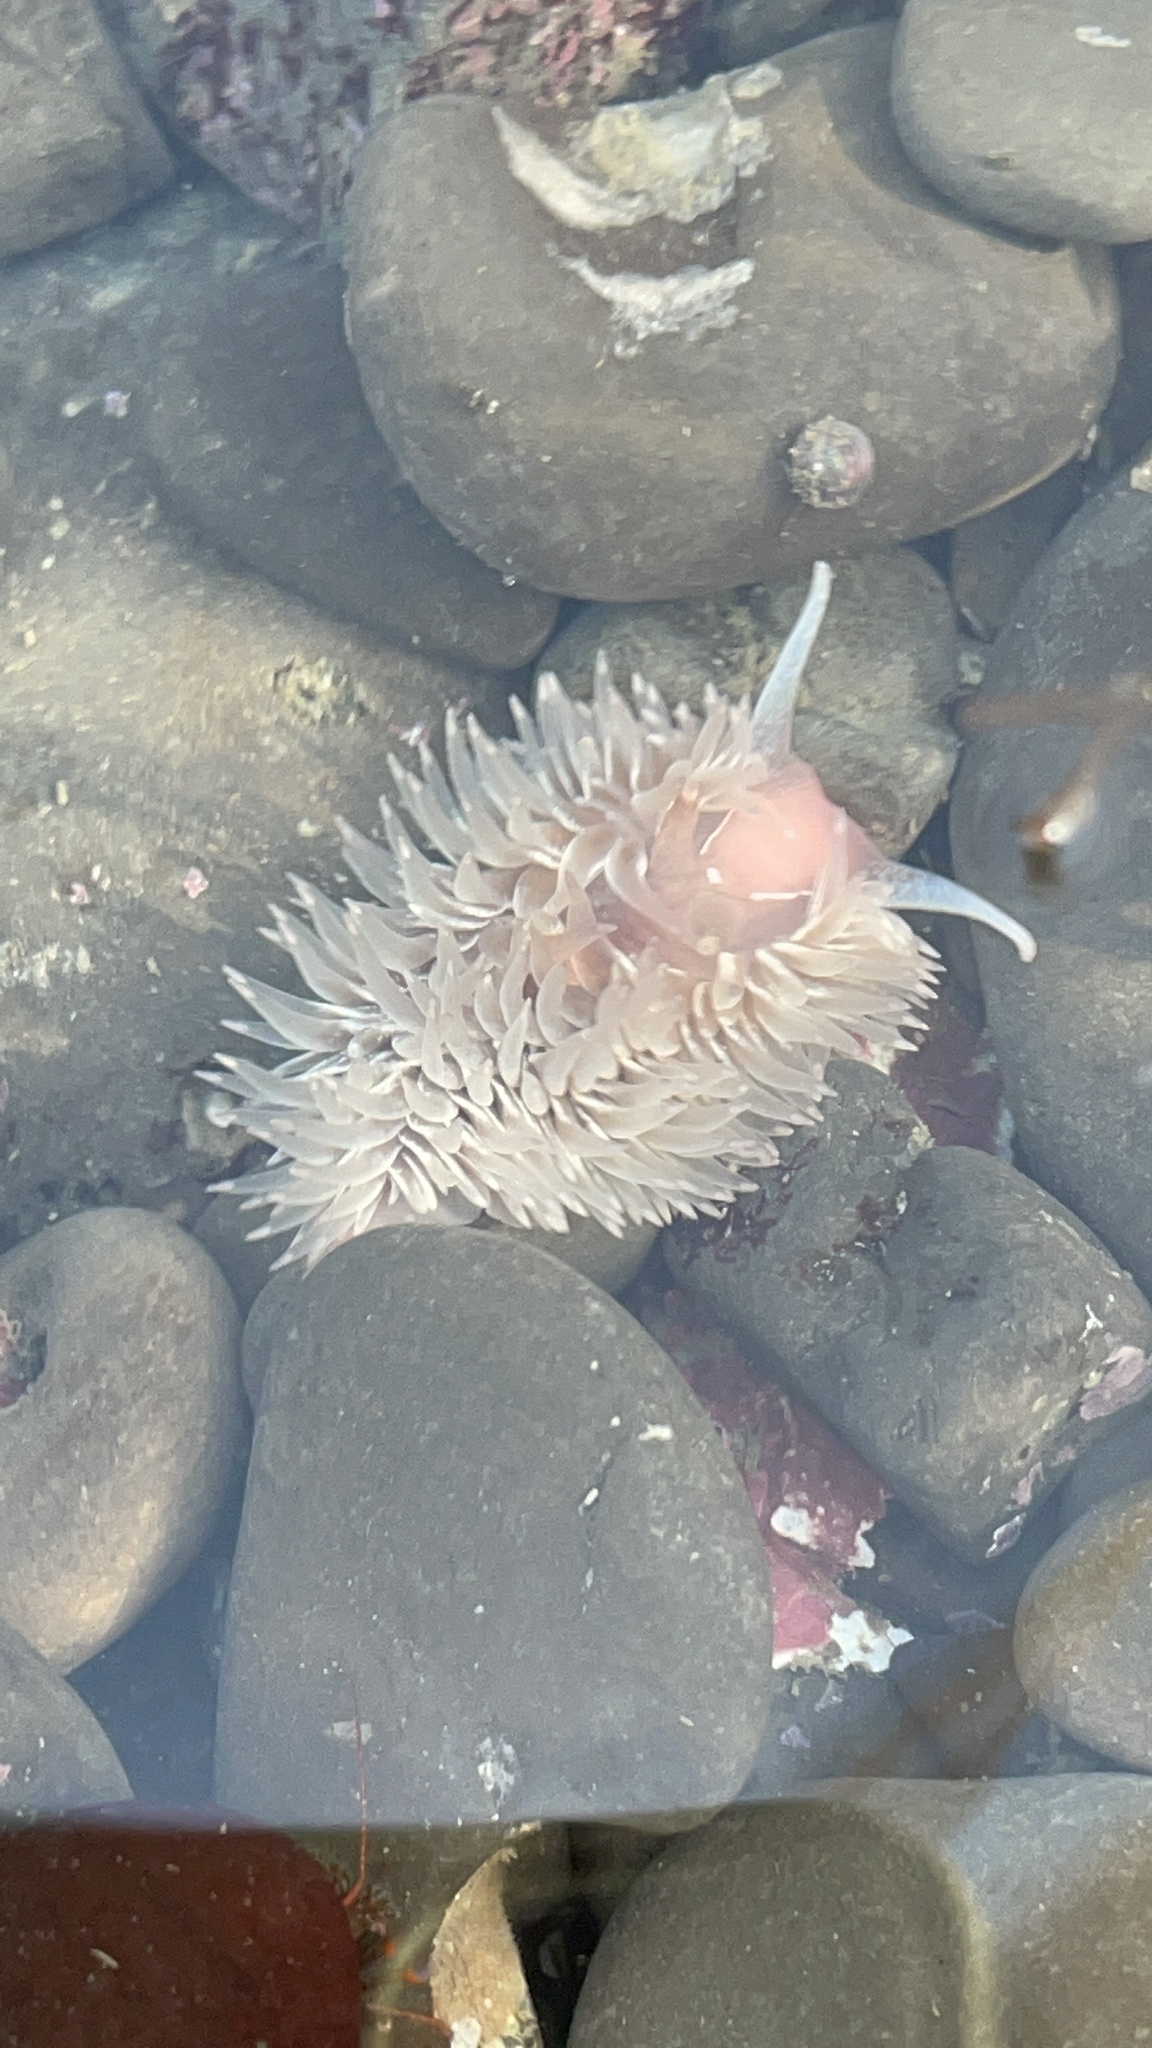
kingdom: Animalia
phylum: Mollusca
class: Gastropoda
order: Nudibranchia
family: Aeolidiidae
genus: Aeolidia
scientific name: Aeolidia loui
